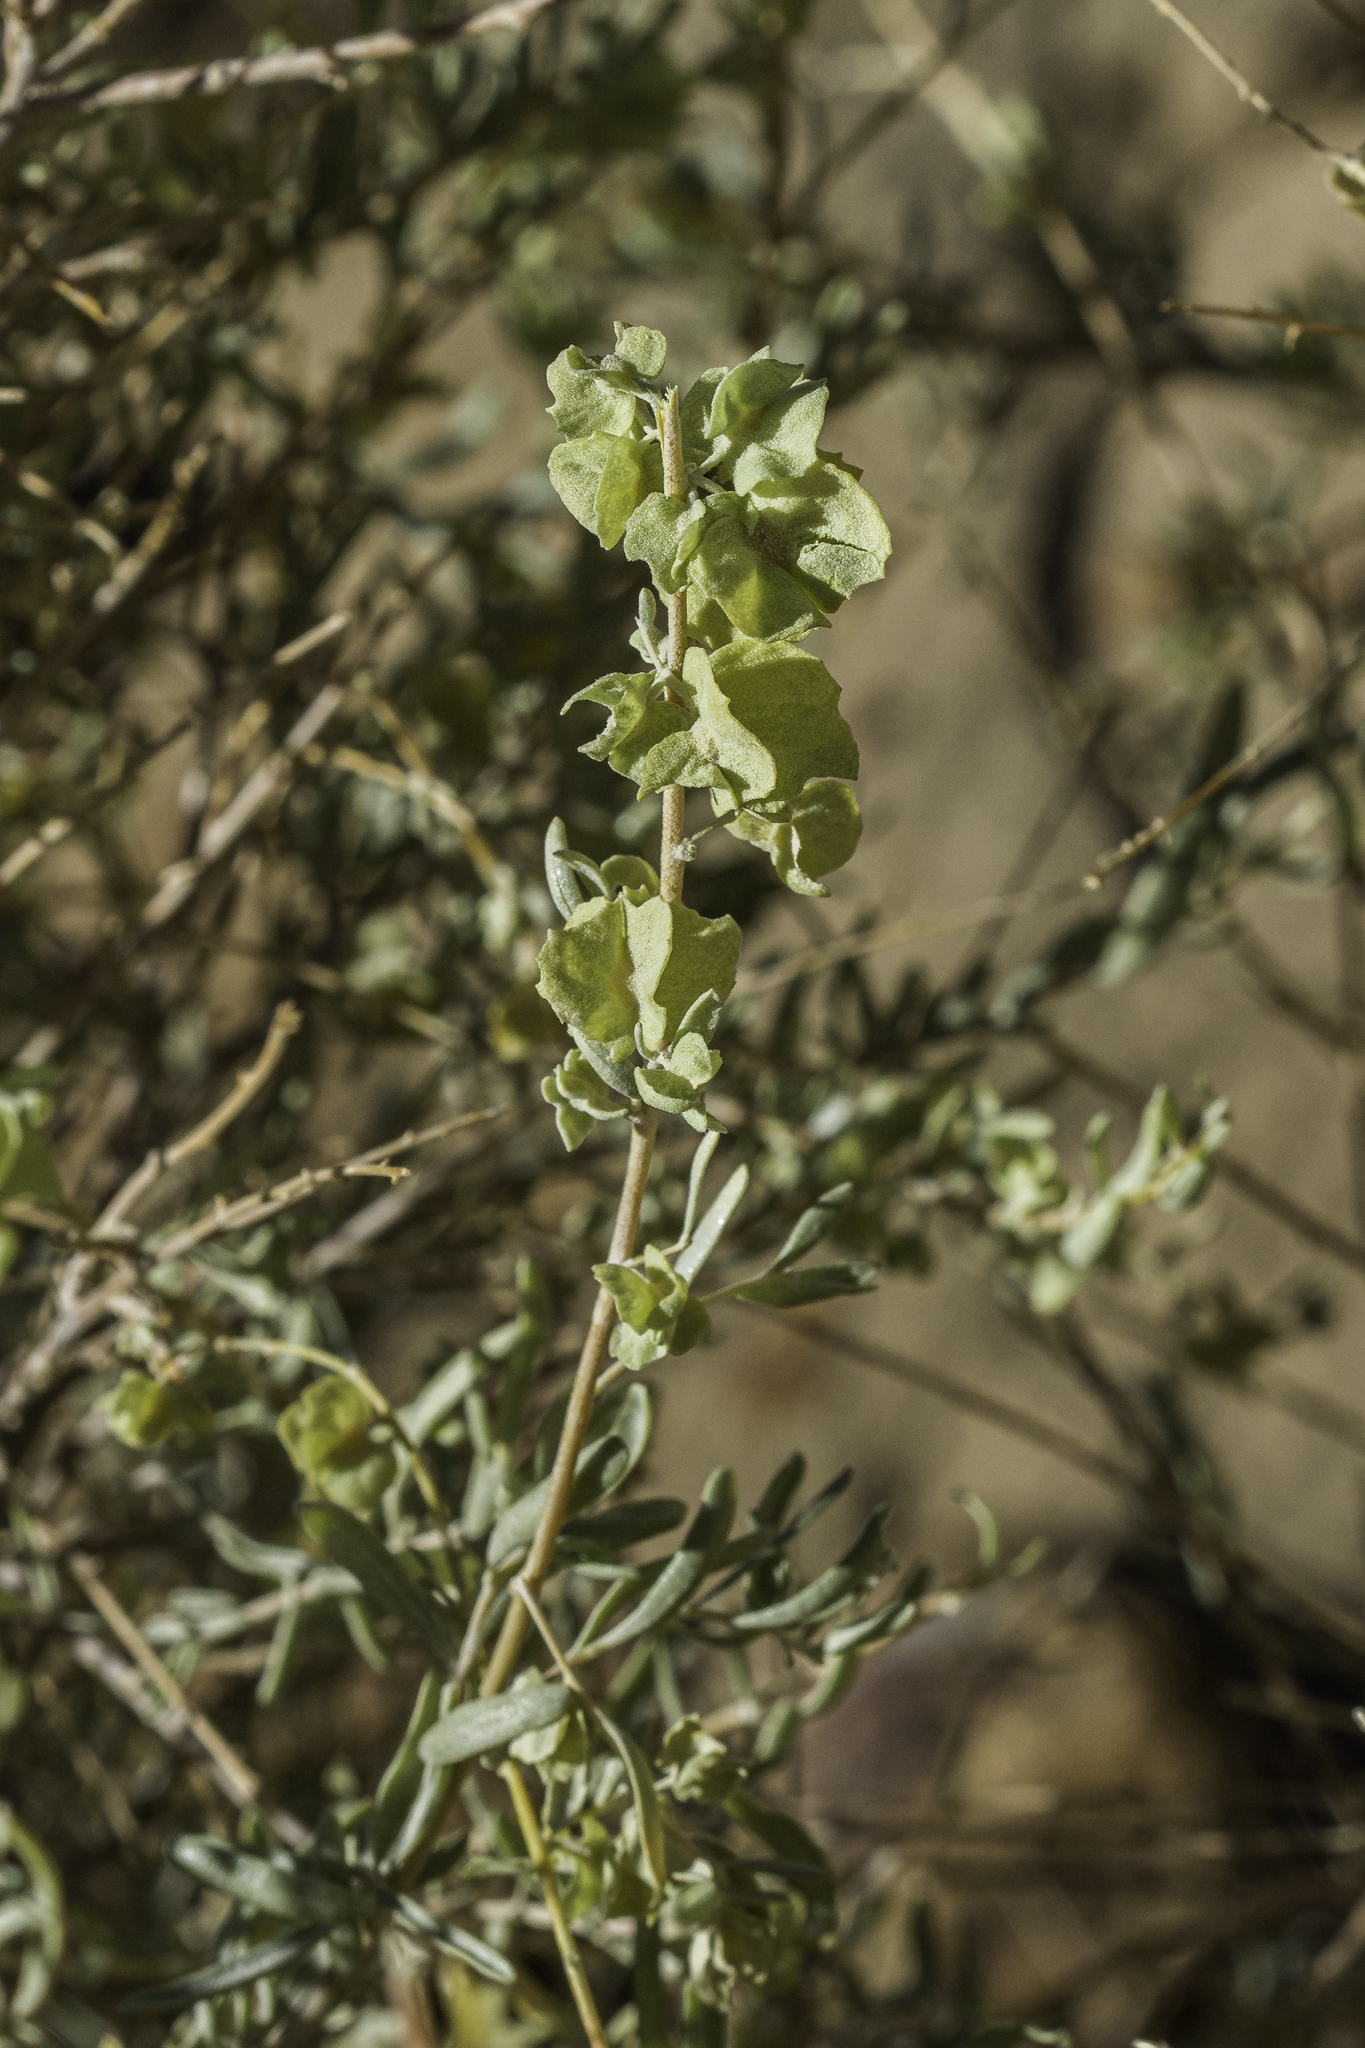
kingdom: Plantae
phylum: Tracheophyta
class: Magnoliopsida
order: Caryophyllales
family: Amaranthaceae
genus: Atriplex
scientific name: Atriplex canescens
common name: Four-wing saltbush
